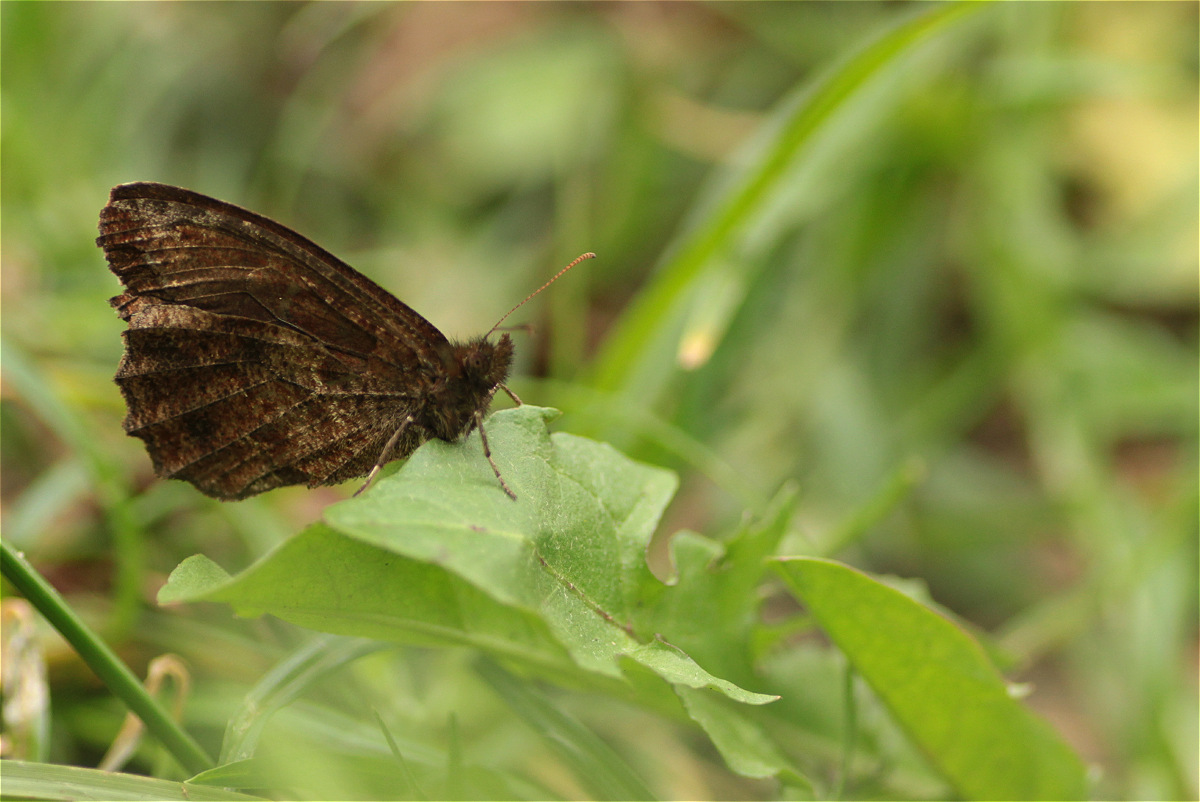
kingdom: Animalia
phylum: Arthropoda
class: Insecta
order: Lepidoptera
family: Nymphalidae
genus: Panyapedaliodes
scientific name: Panyapedaliodes drymaea
